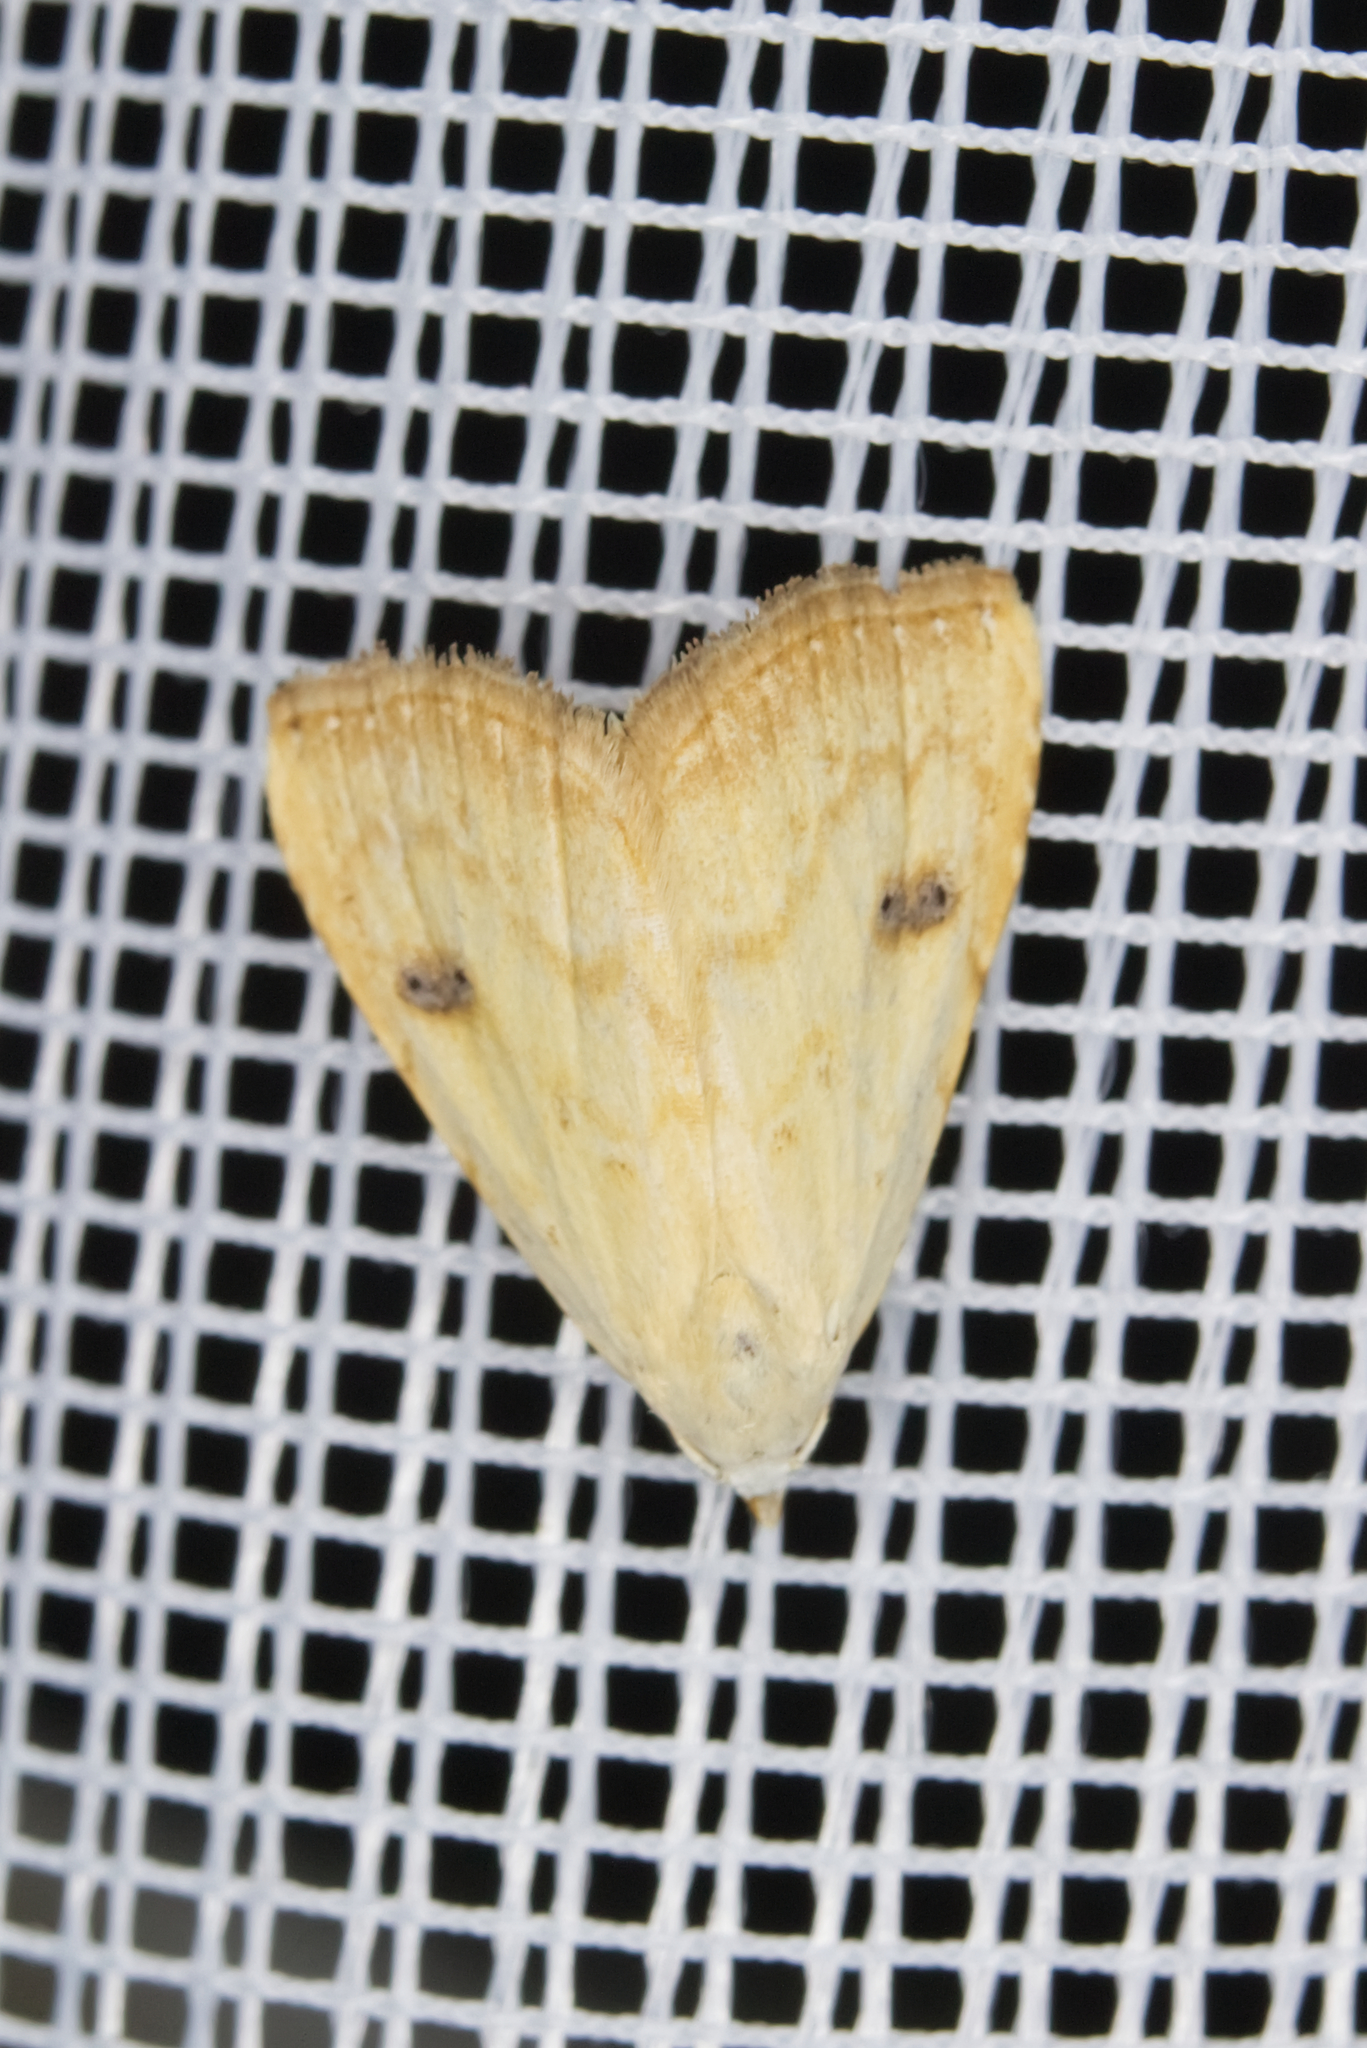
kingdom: Animalia
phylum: Arthropoda
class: Insecta
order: Lepidoptera
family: Erebidae
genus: Rivula
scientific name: Rivula sericealis
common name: Straw dot
